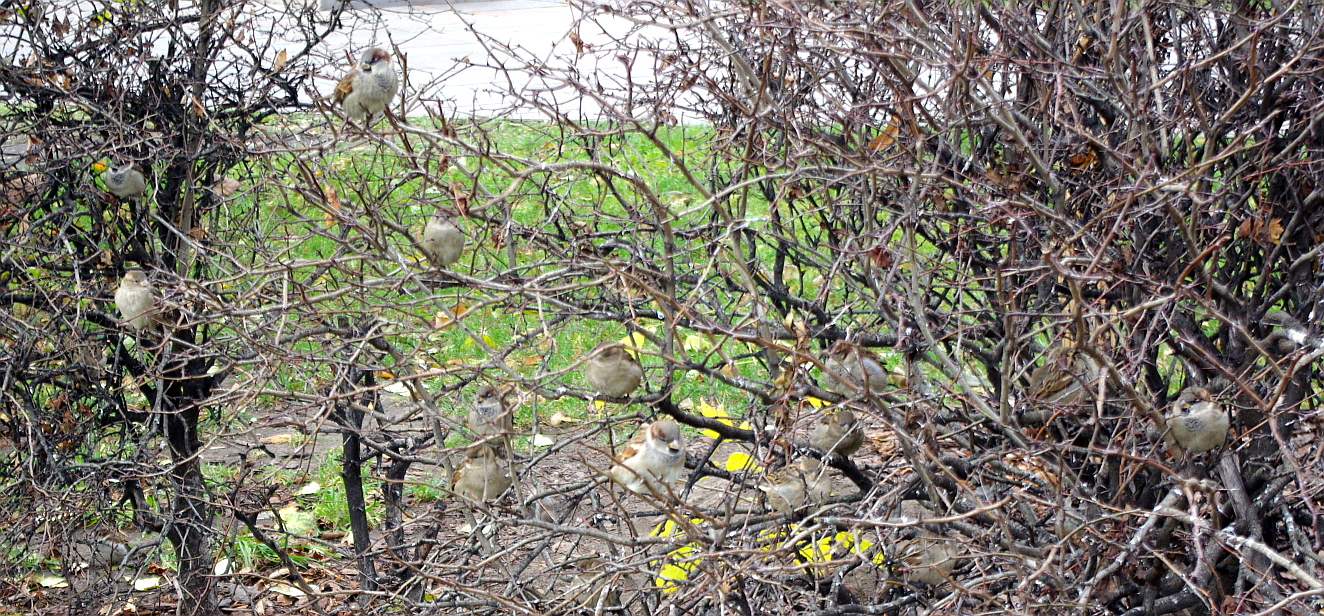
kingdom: Animalia
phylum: Chordata
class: Aves
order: Passeriformes
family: Passeridae
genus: Passer
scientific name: Passer domesticus
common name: House sparrow
